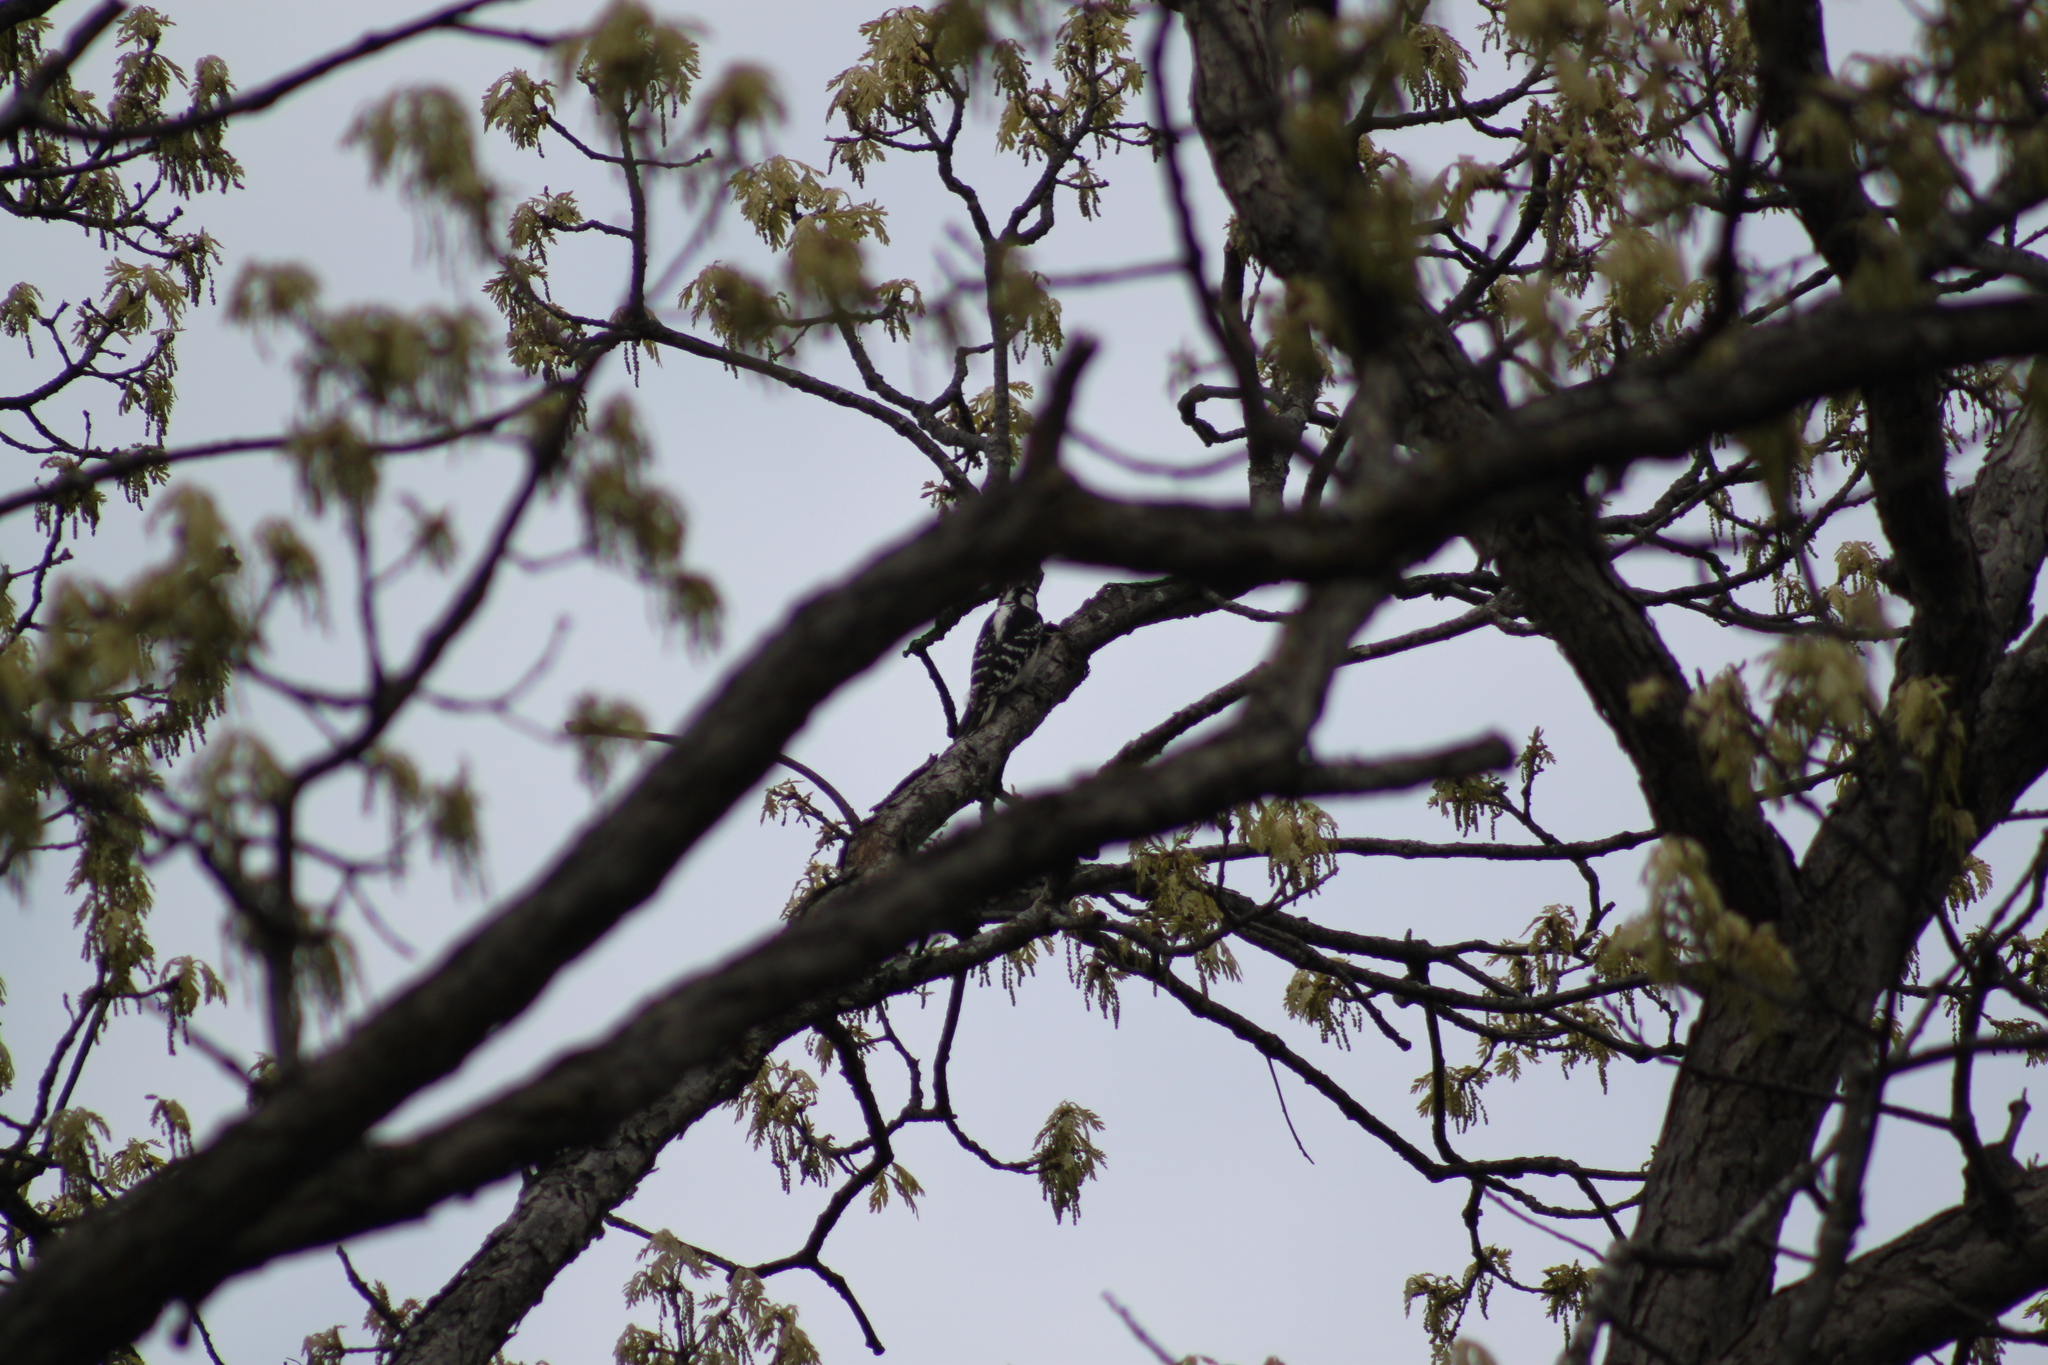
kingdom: Animalia
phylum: Chordata
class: Aves
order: Piciformes
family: Picidae
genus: Leuconotopicus
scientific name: Leuconotopicus villosus
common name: Hairy woodpecker
